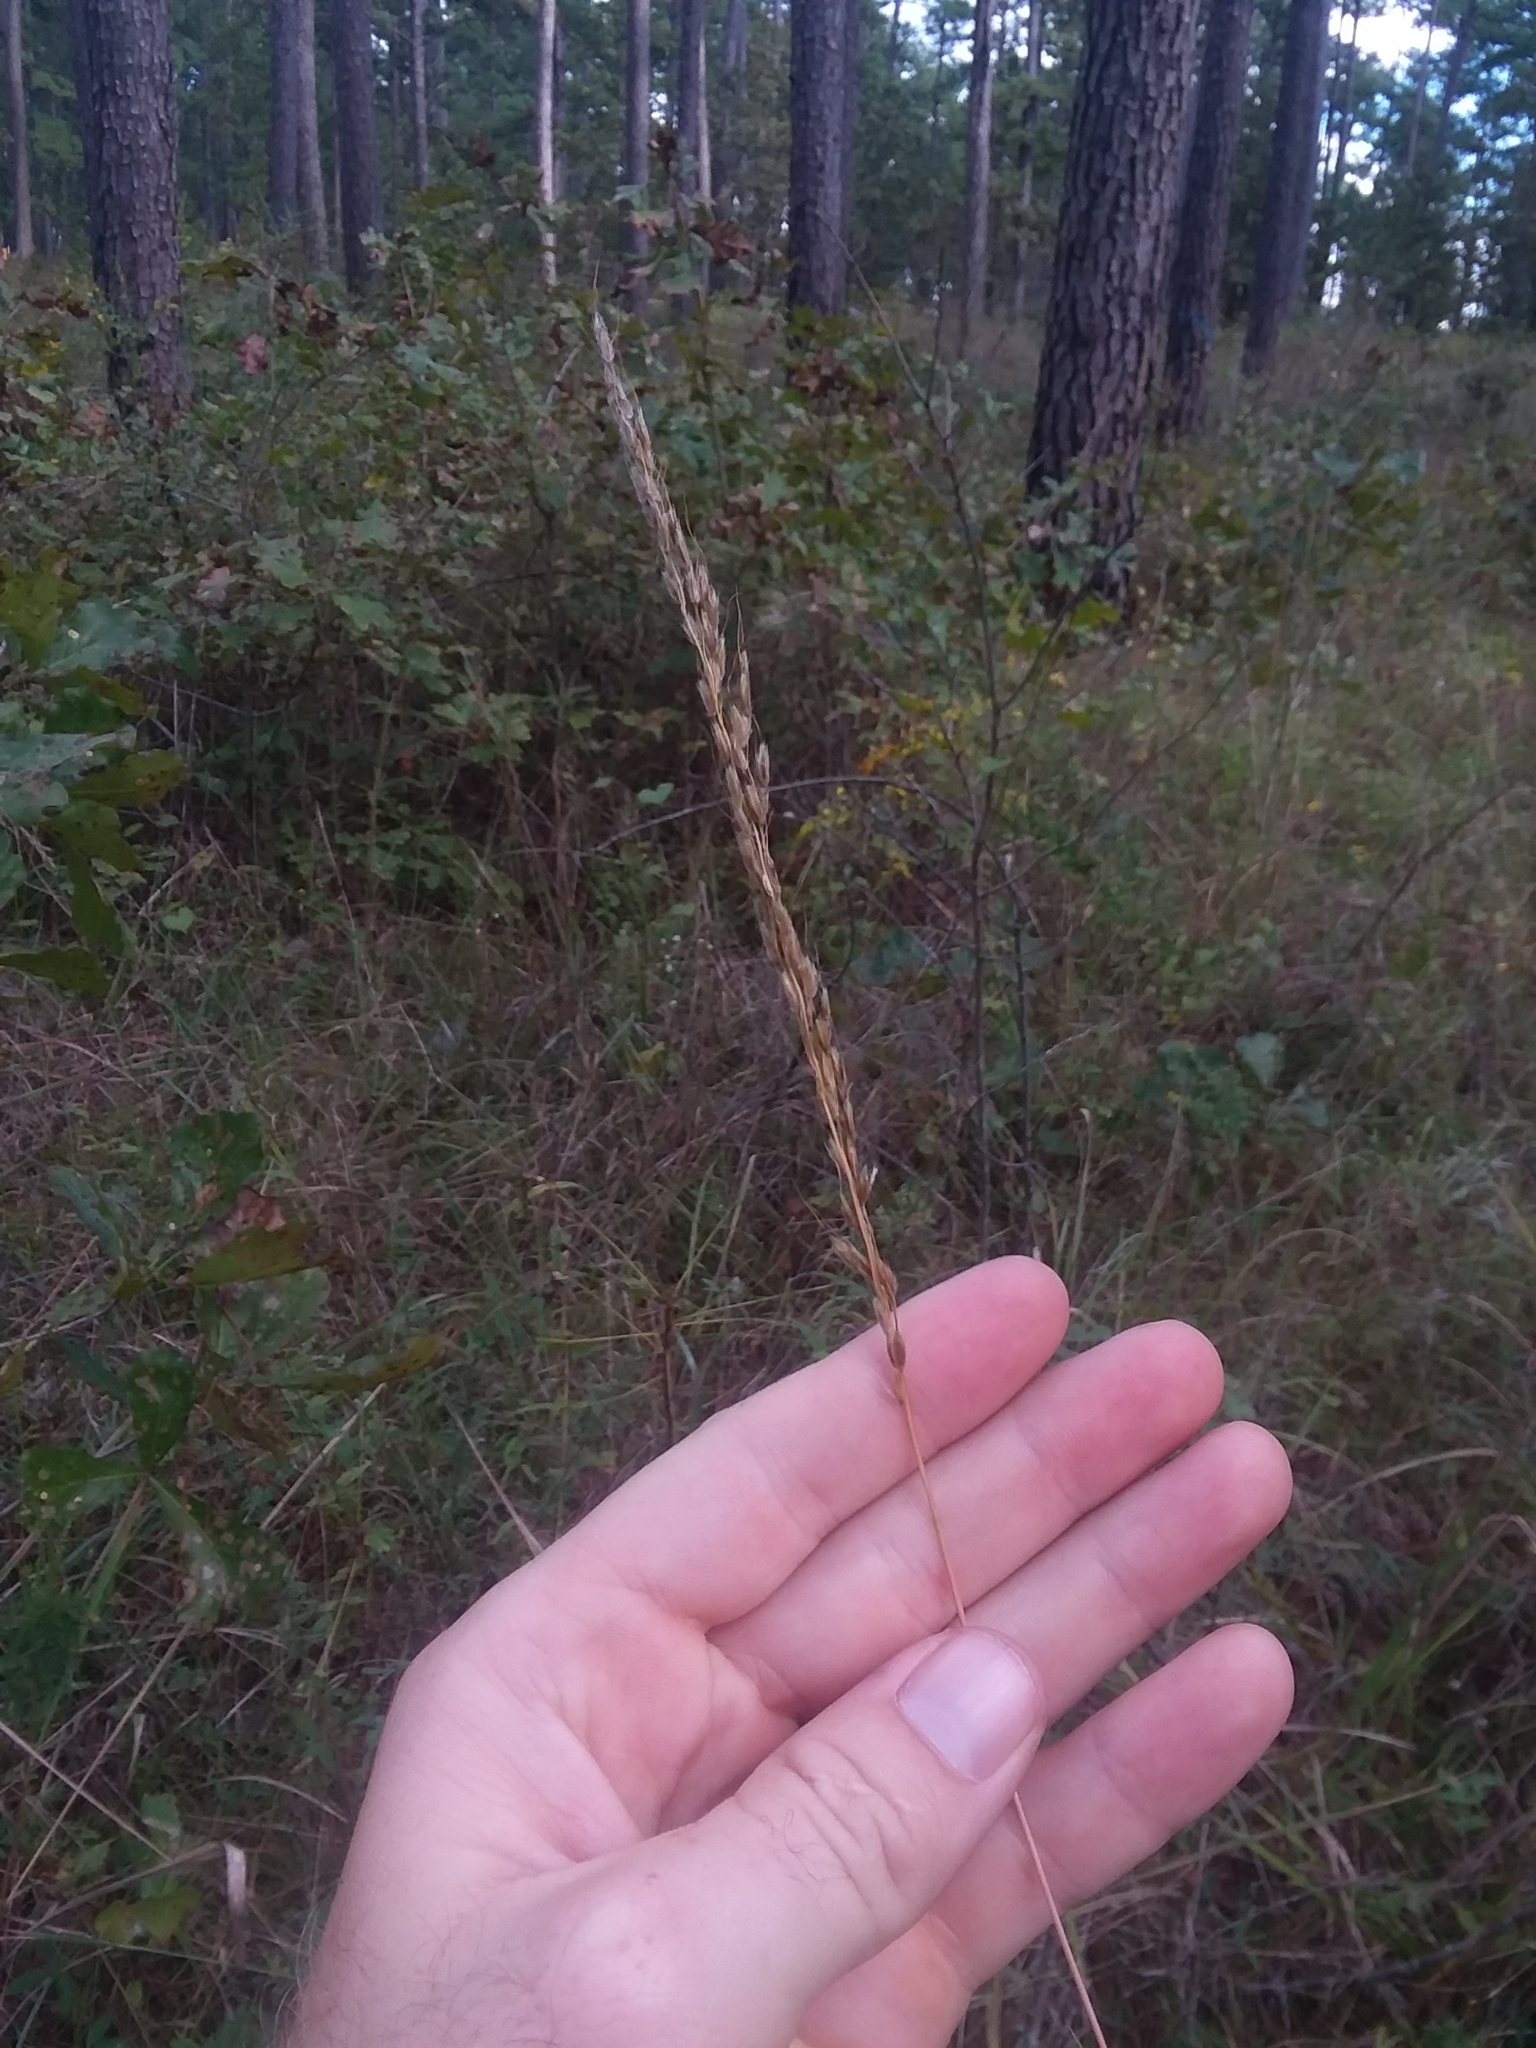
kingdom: Plantae
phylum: Tracheophyta
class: Liliopsida
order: Poales
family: Poaceae
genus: Sorghastrum
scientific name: Sorghastrum nutans
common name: Indian grass
